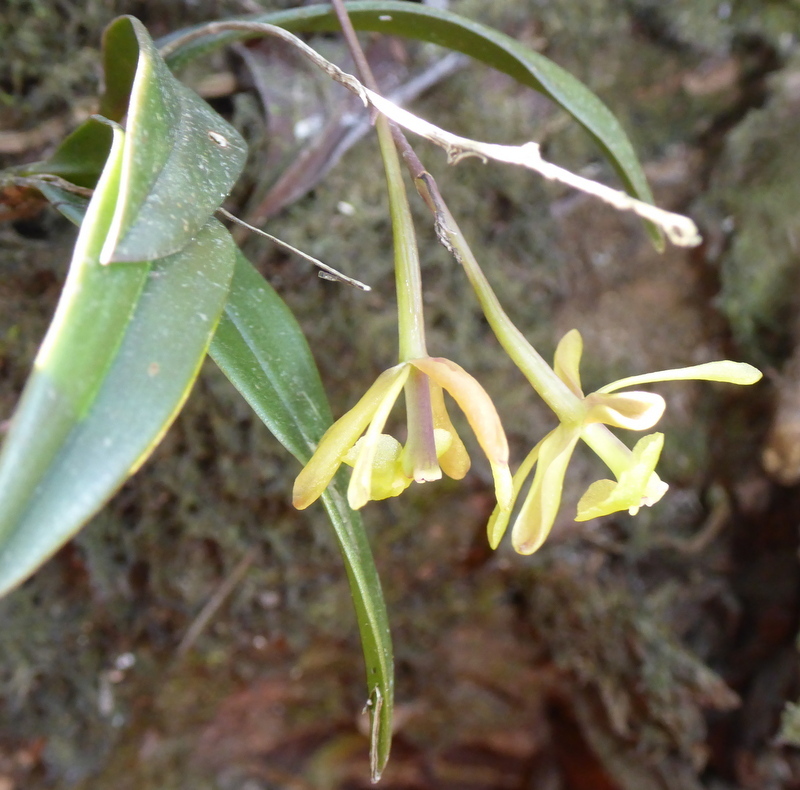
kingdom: Plantae
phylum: Tracheophyta
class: Liliopsida
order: Asparagales
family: Orchidaceae
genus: Epidendrum
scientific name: Epidendrum conopseum
